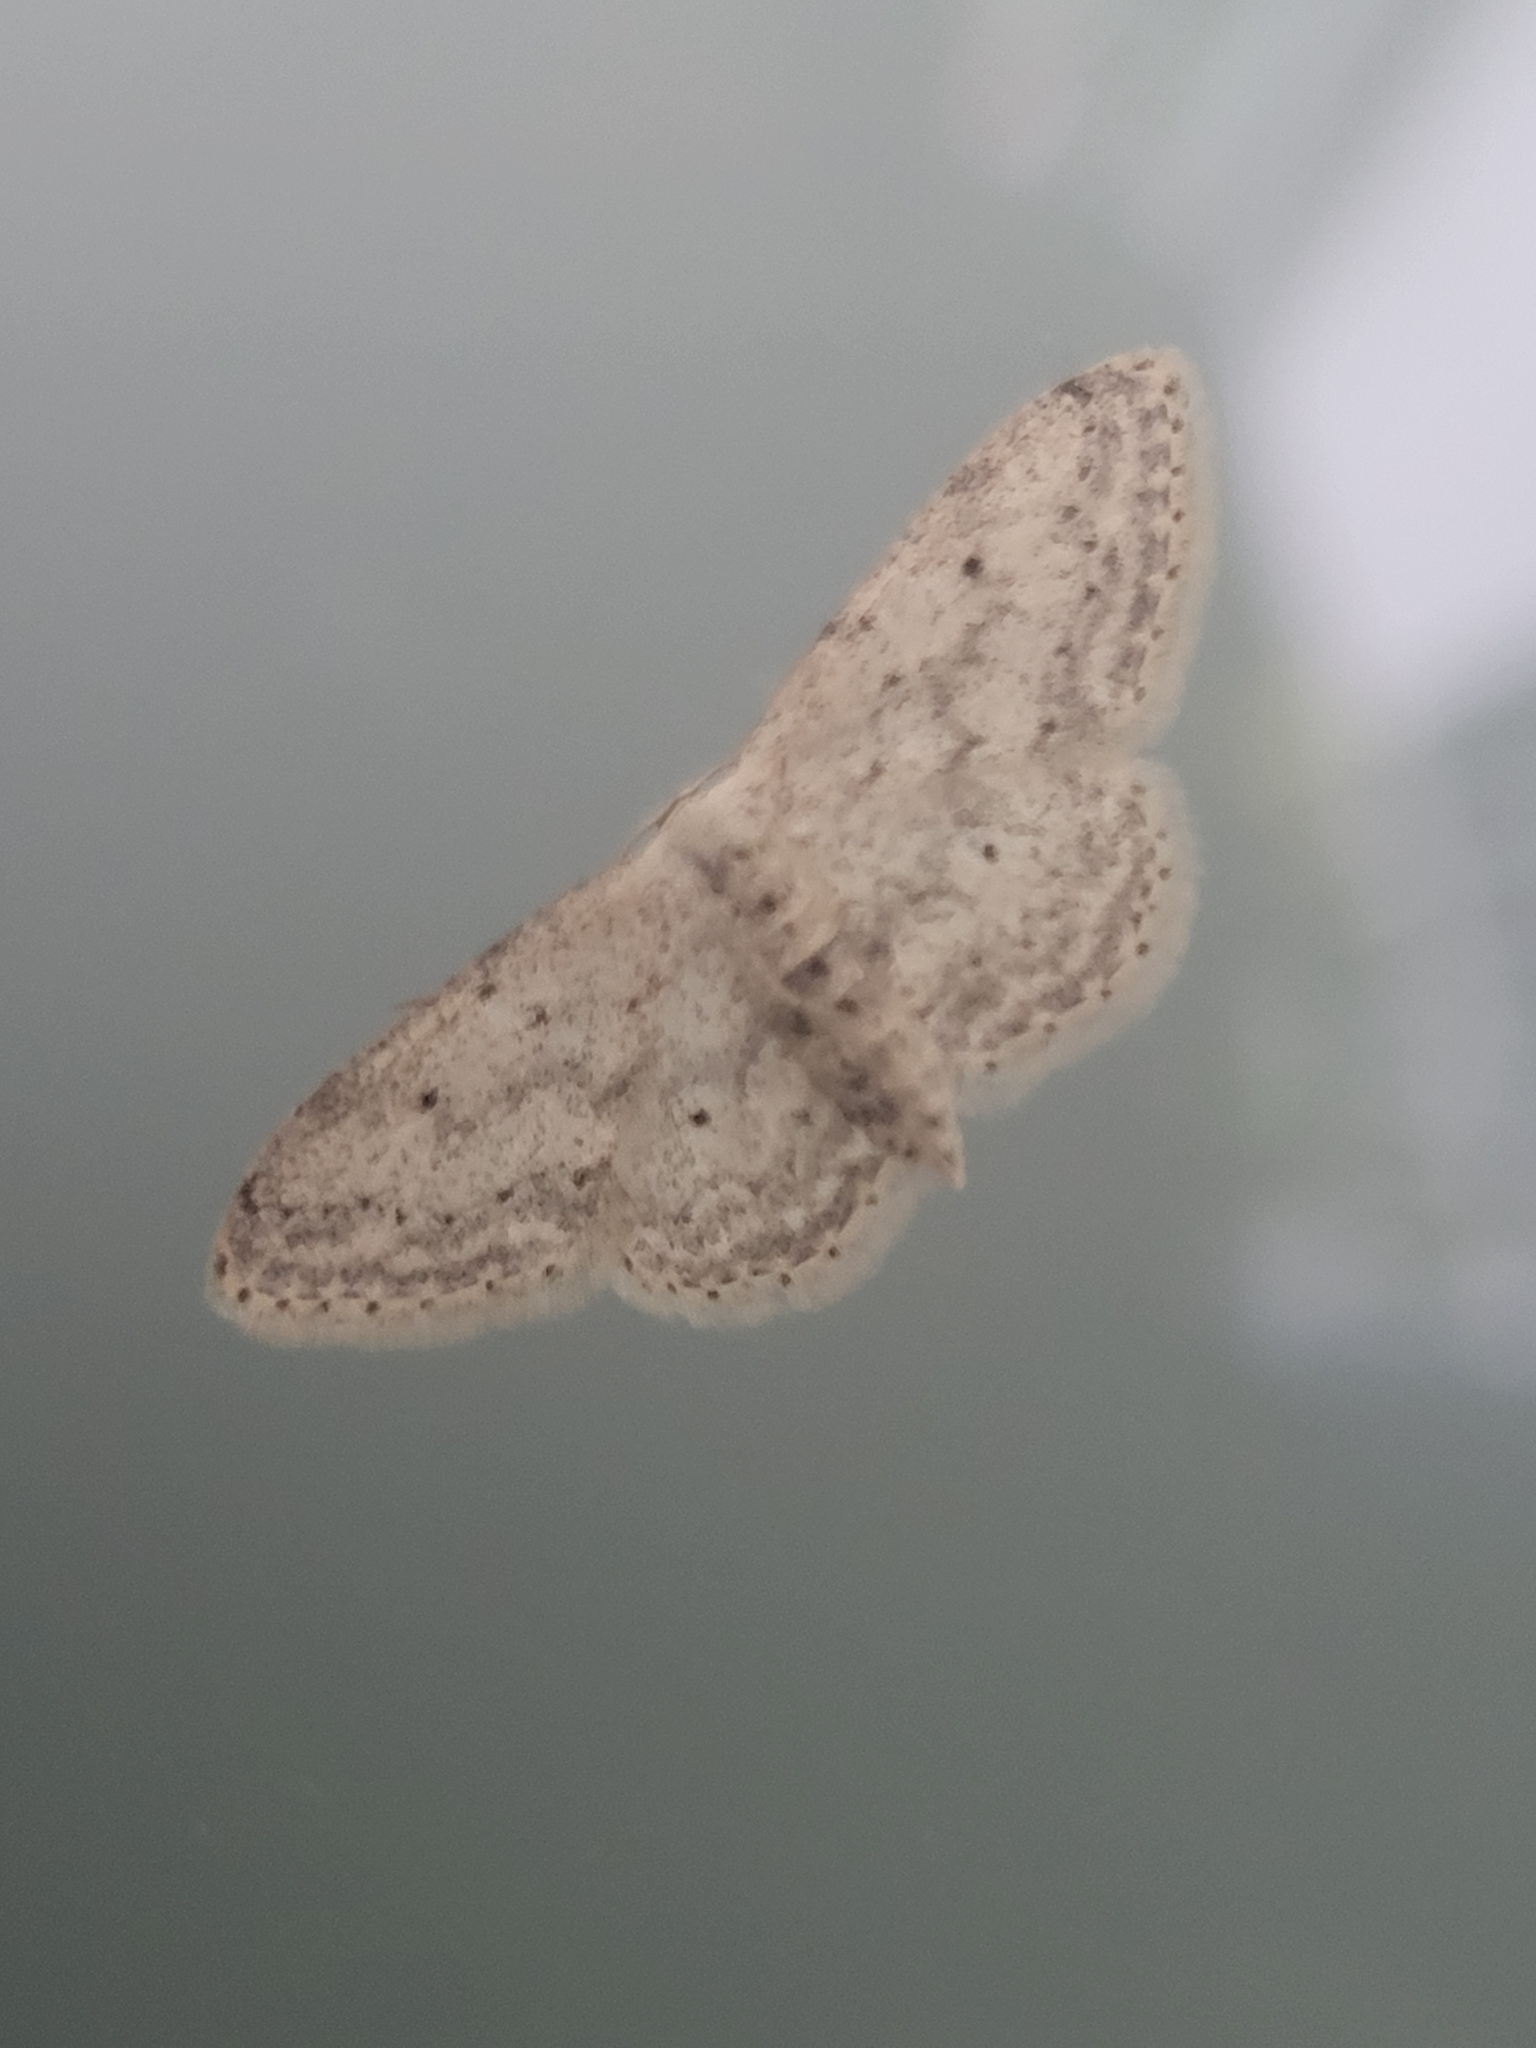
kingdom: Animalia
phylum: Arthropoda
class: Insecta
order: Lepidoptera
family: Geometridae
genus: Idaea
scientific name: Idaea seriata
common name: Small dusty wave
